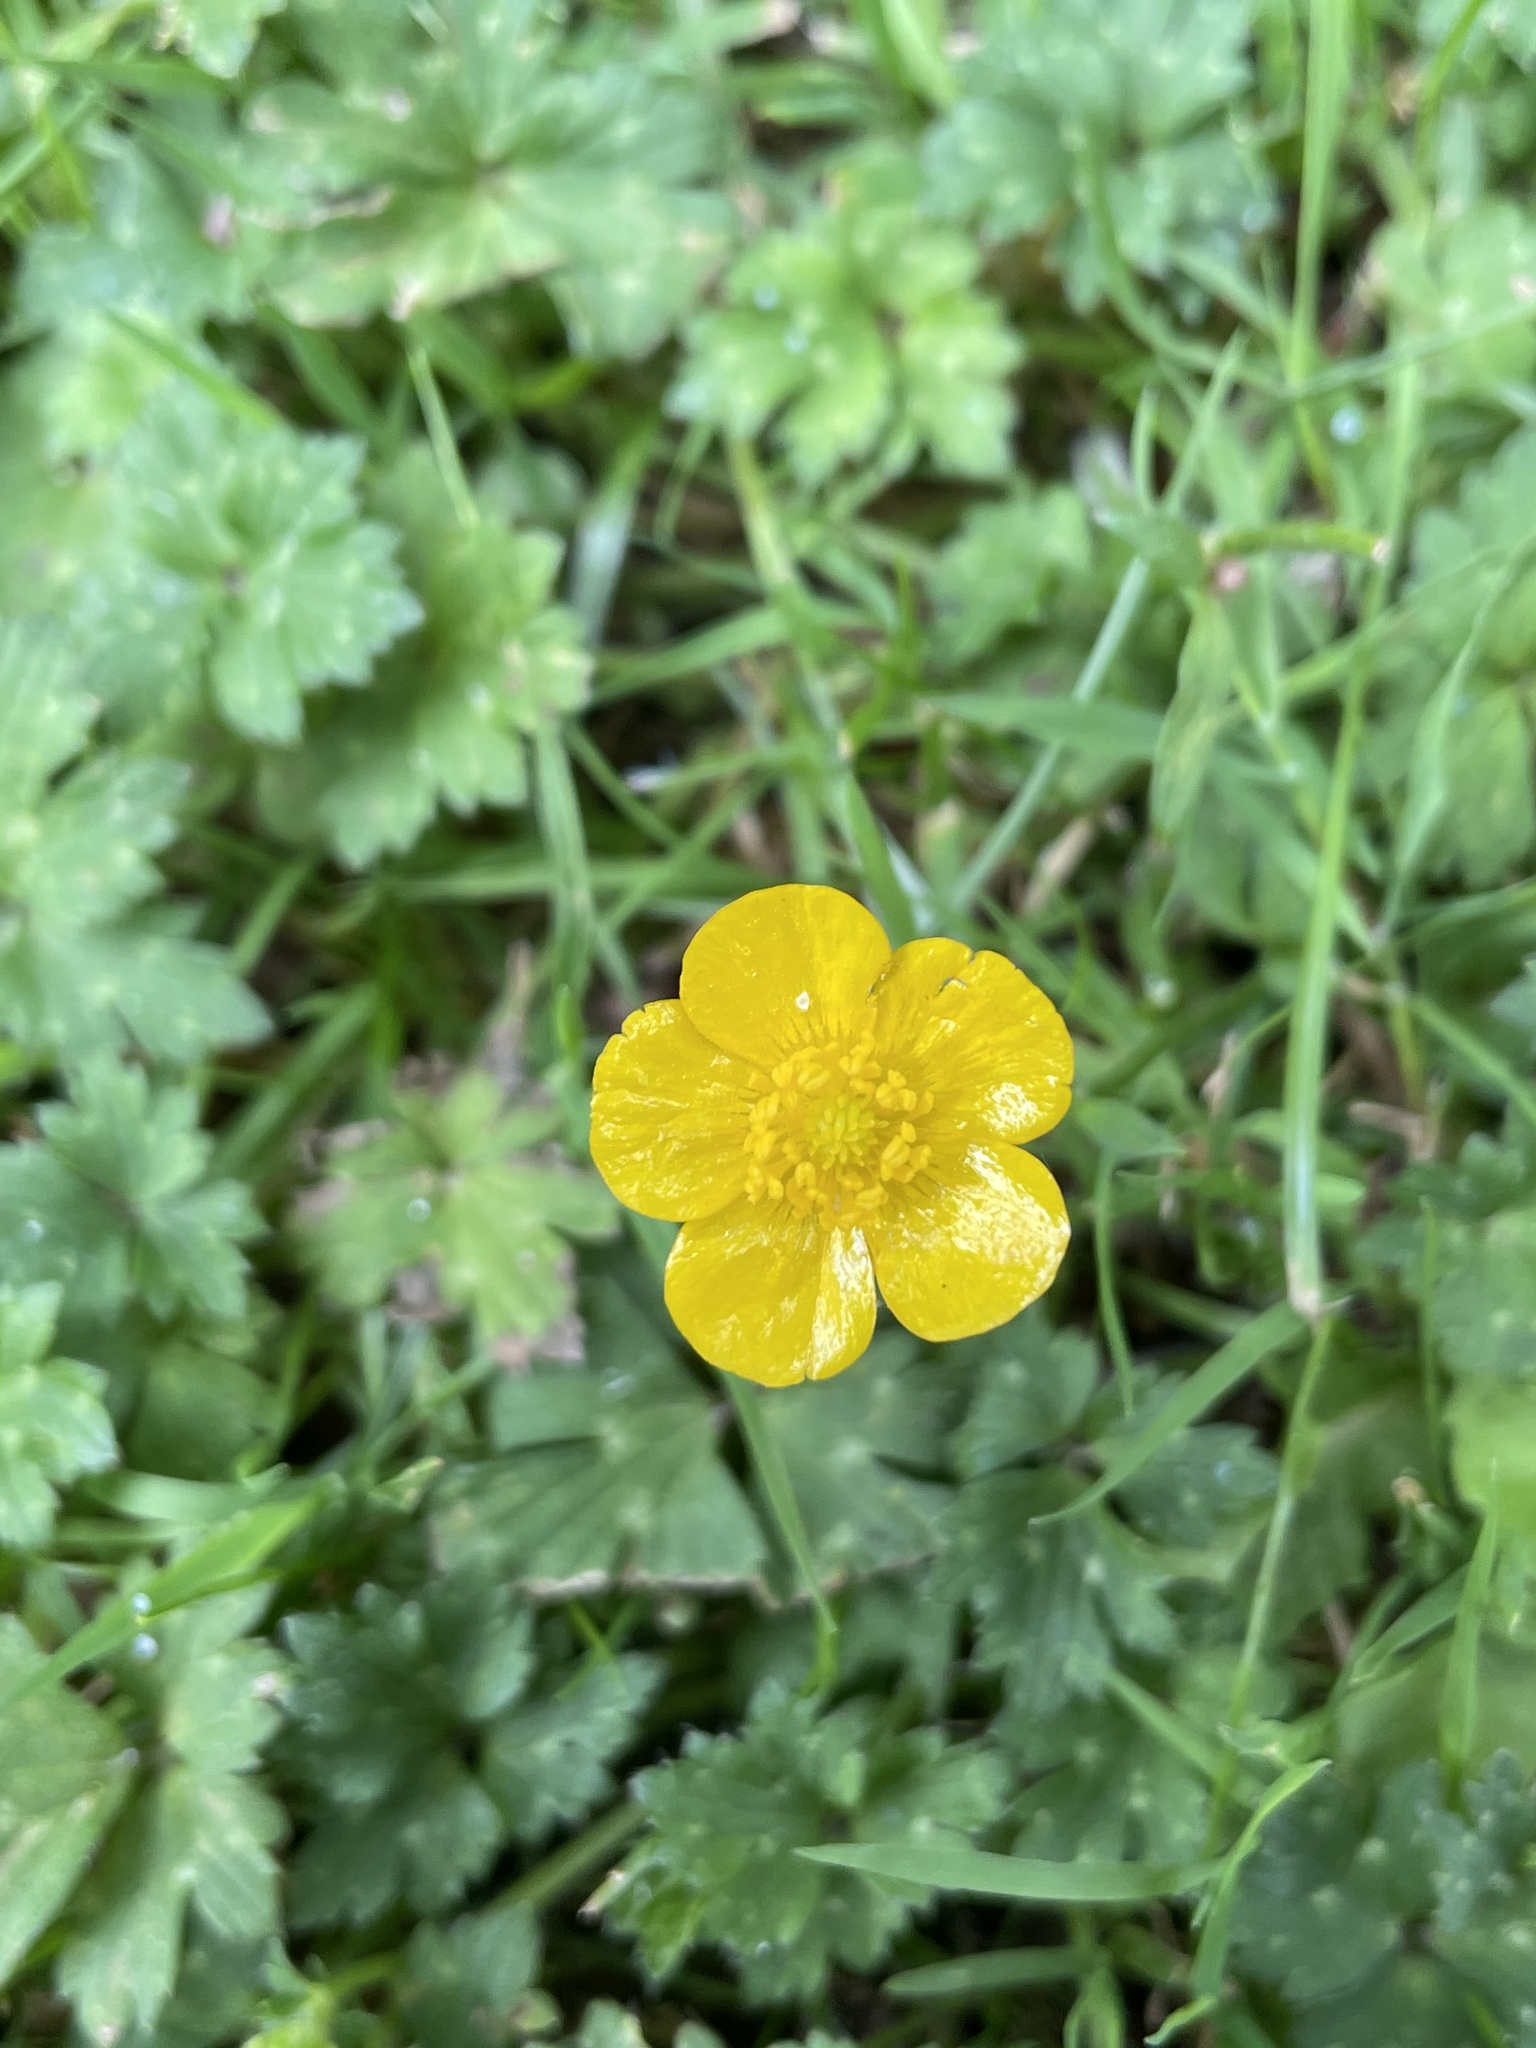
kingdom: Plantae
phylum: Tracheophyta
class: Magnoliopsida
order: Ranunculales
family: Ranunculaceae
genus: Ranunculus
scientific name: Ranunculus repens
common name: Creeping buttercup
